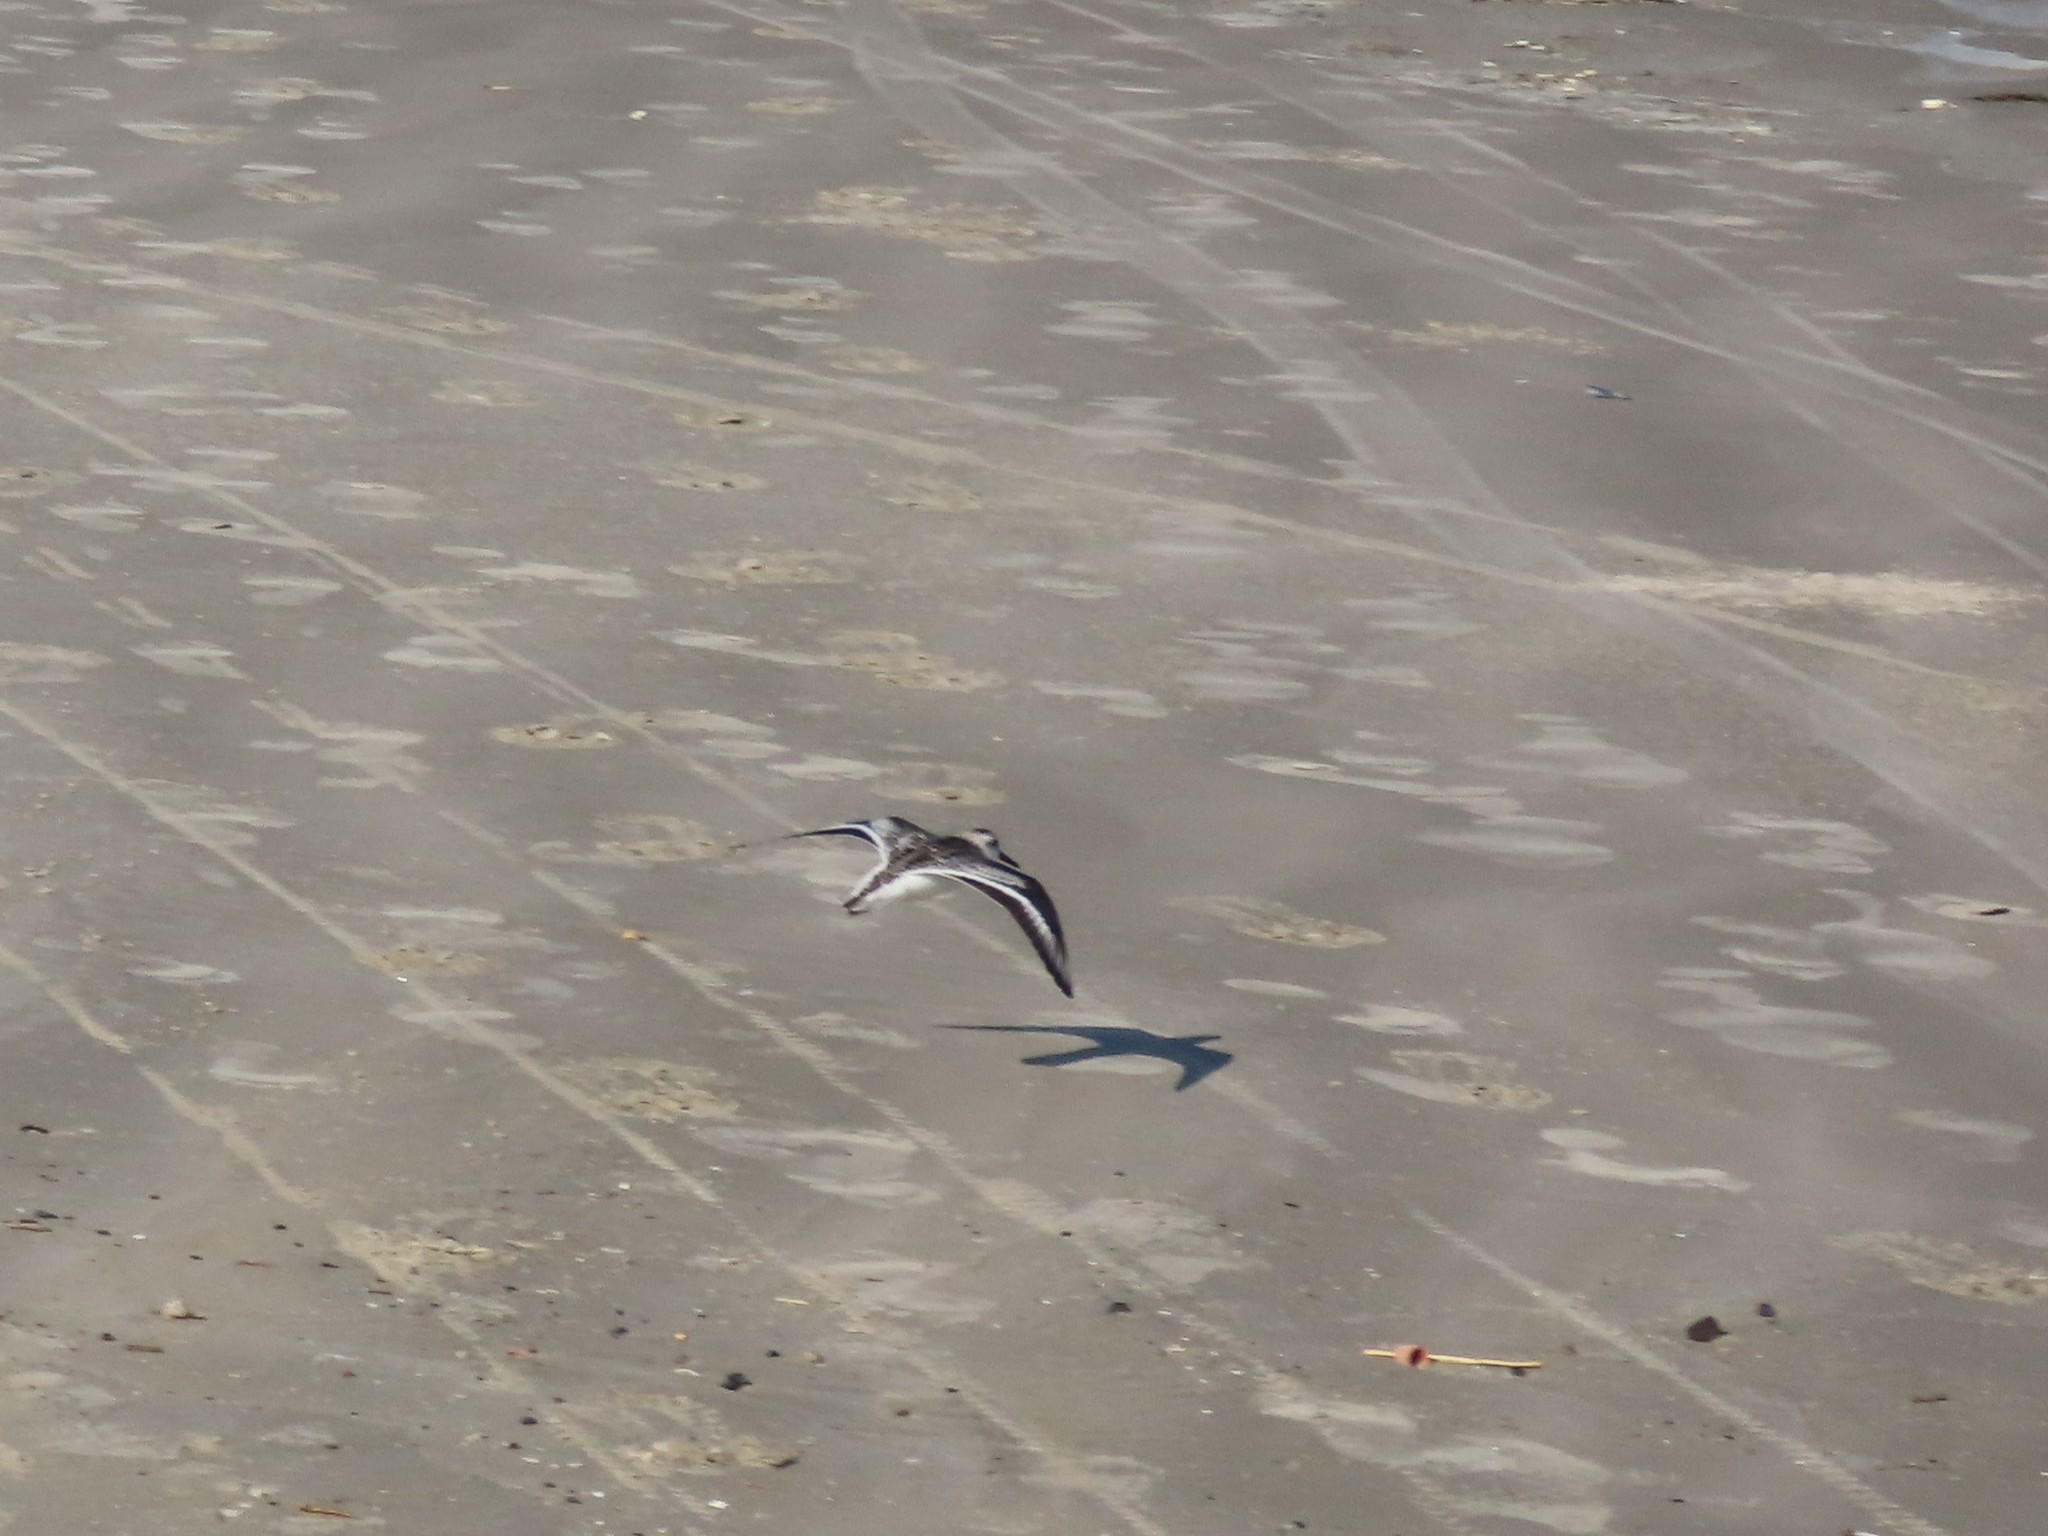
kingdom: Animalia
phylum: Chordata
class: Aves
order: Charadriiformes
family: Scolopacidae
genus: Calidris
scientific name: Calidris alba
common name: Sanderling
